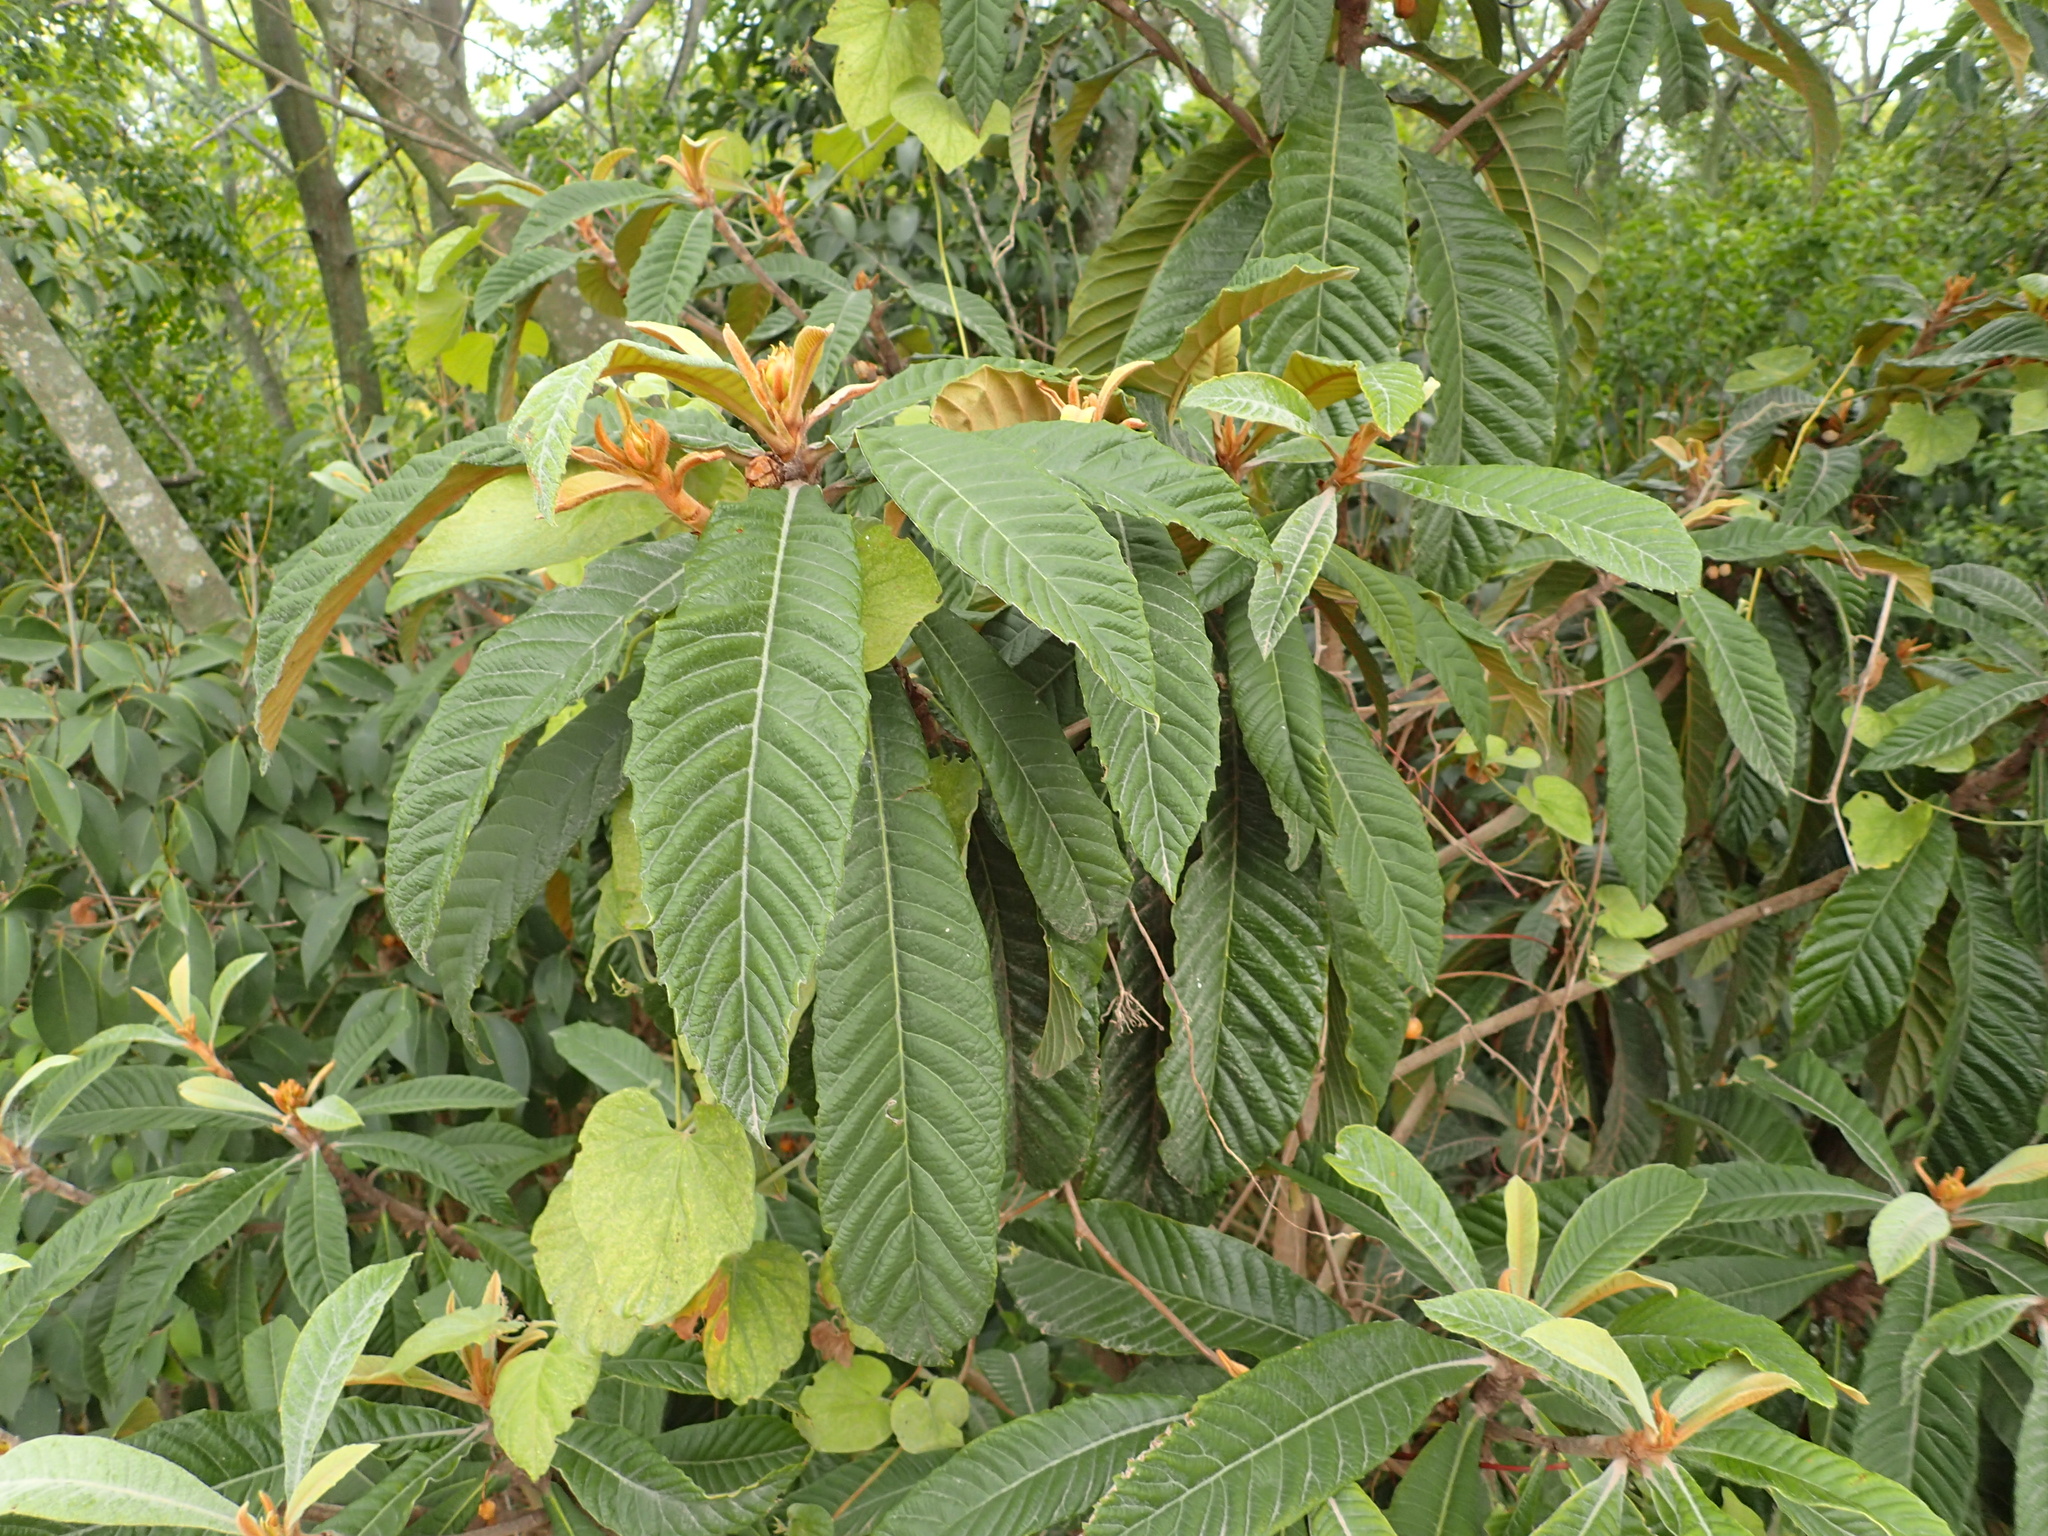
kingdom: Plantae
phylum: Tracheophyta
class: Magnoliopsida
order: Rosales
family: Rosaceae
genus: Rhaphiolepis
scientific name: Rhaphiolepis bibas
